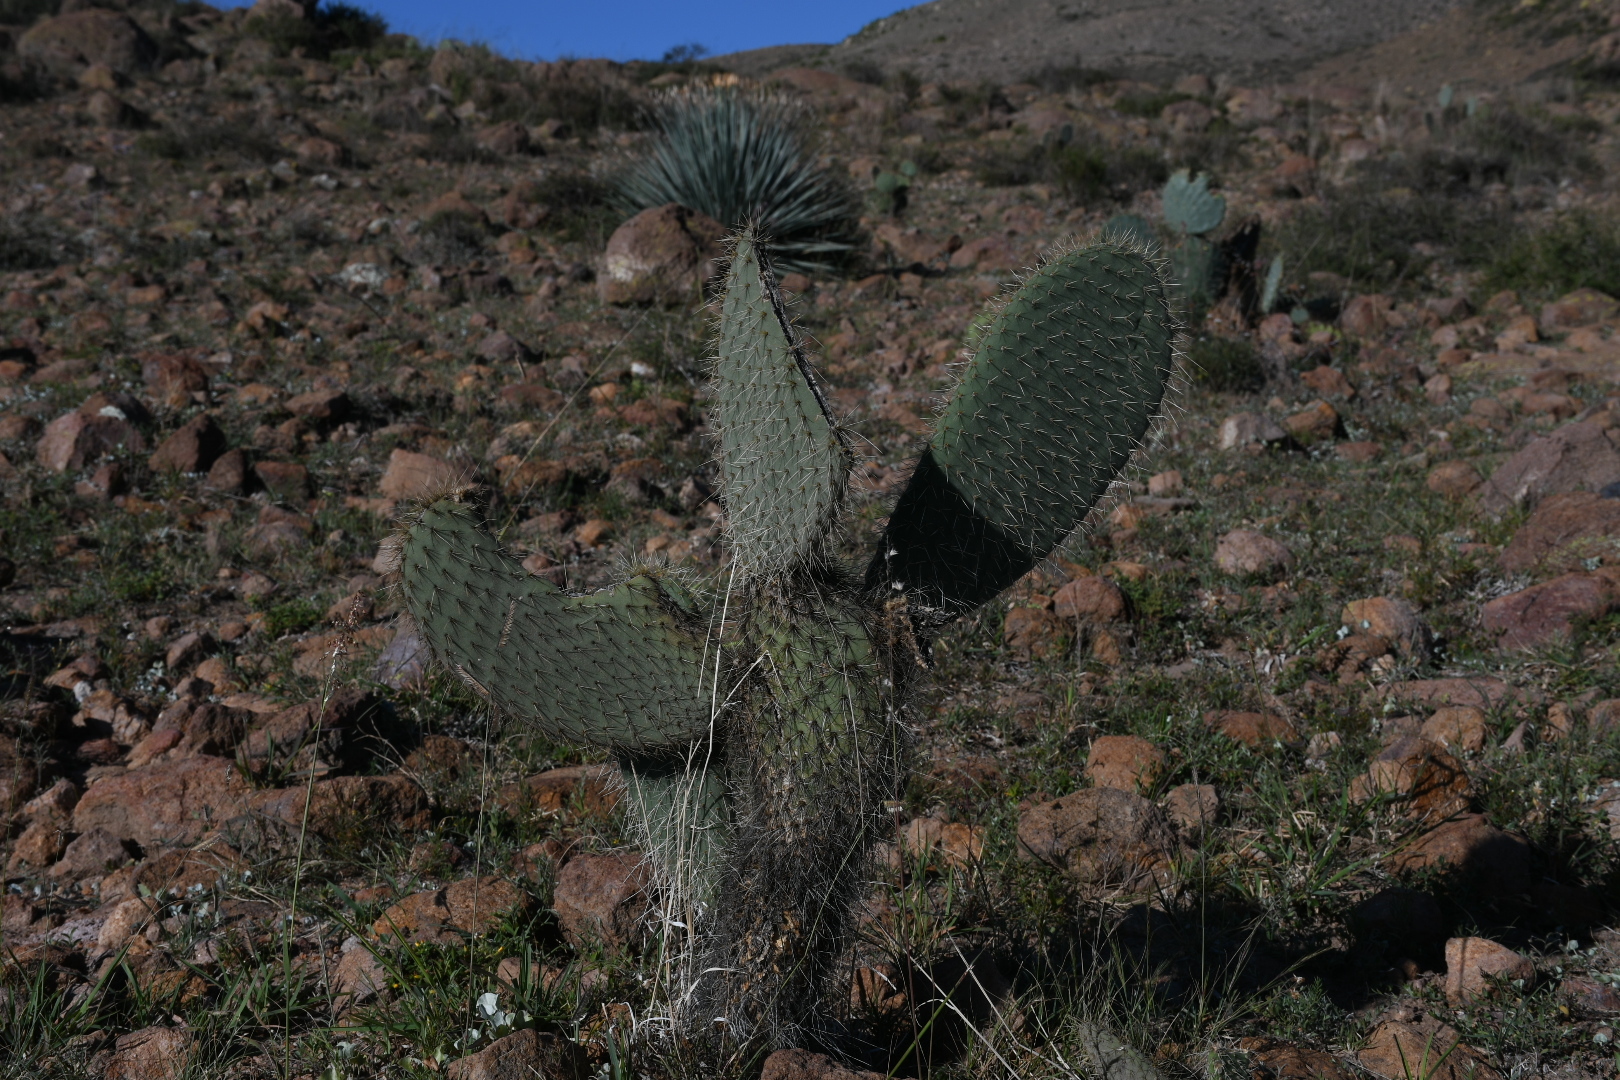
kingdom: Plantae
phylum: Tracheophyta
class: Magnoliopsida
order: Caryophyllales
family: Cactaceae
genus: Opuntia
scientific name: Opuntia leucotricha
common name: Arborescent pricklypear
